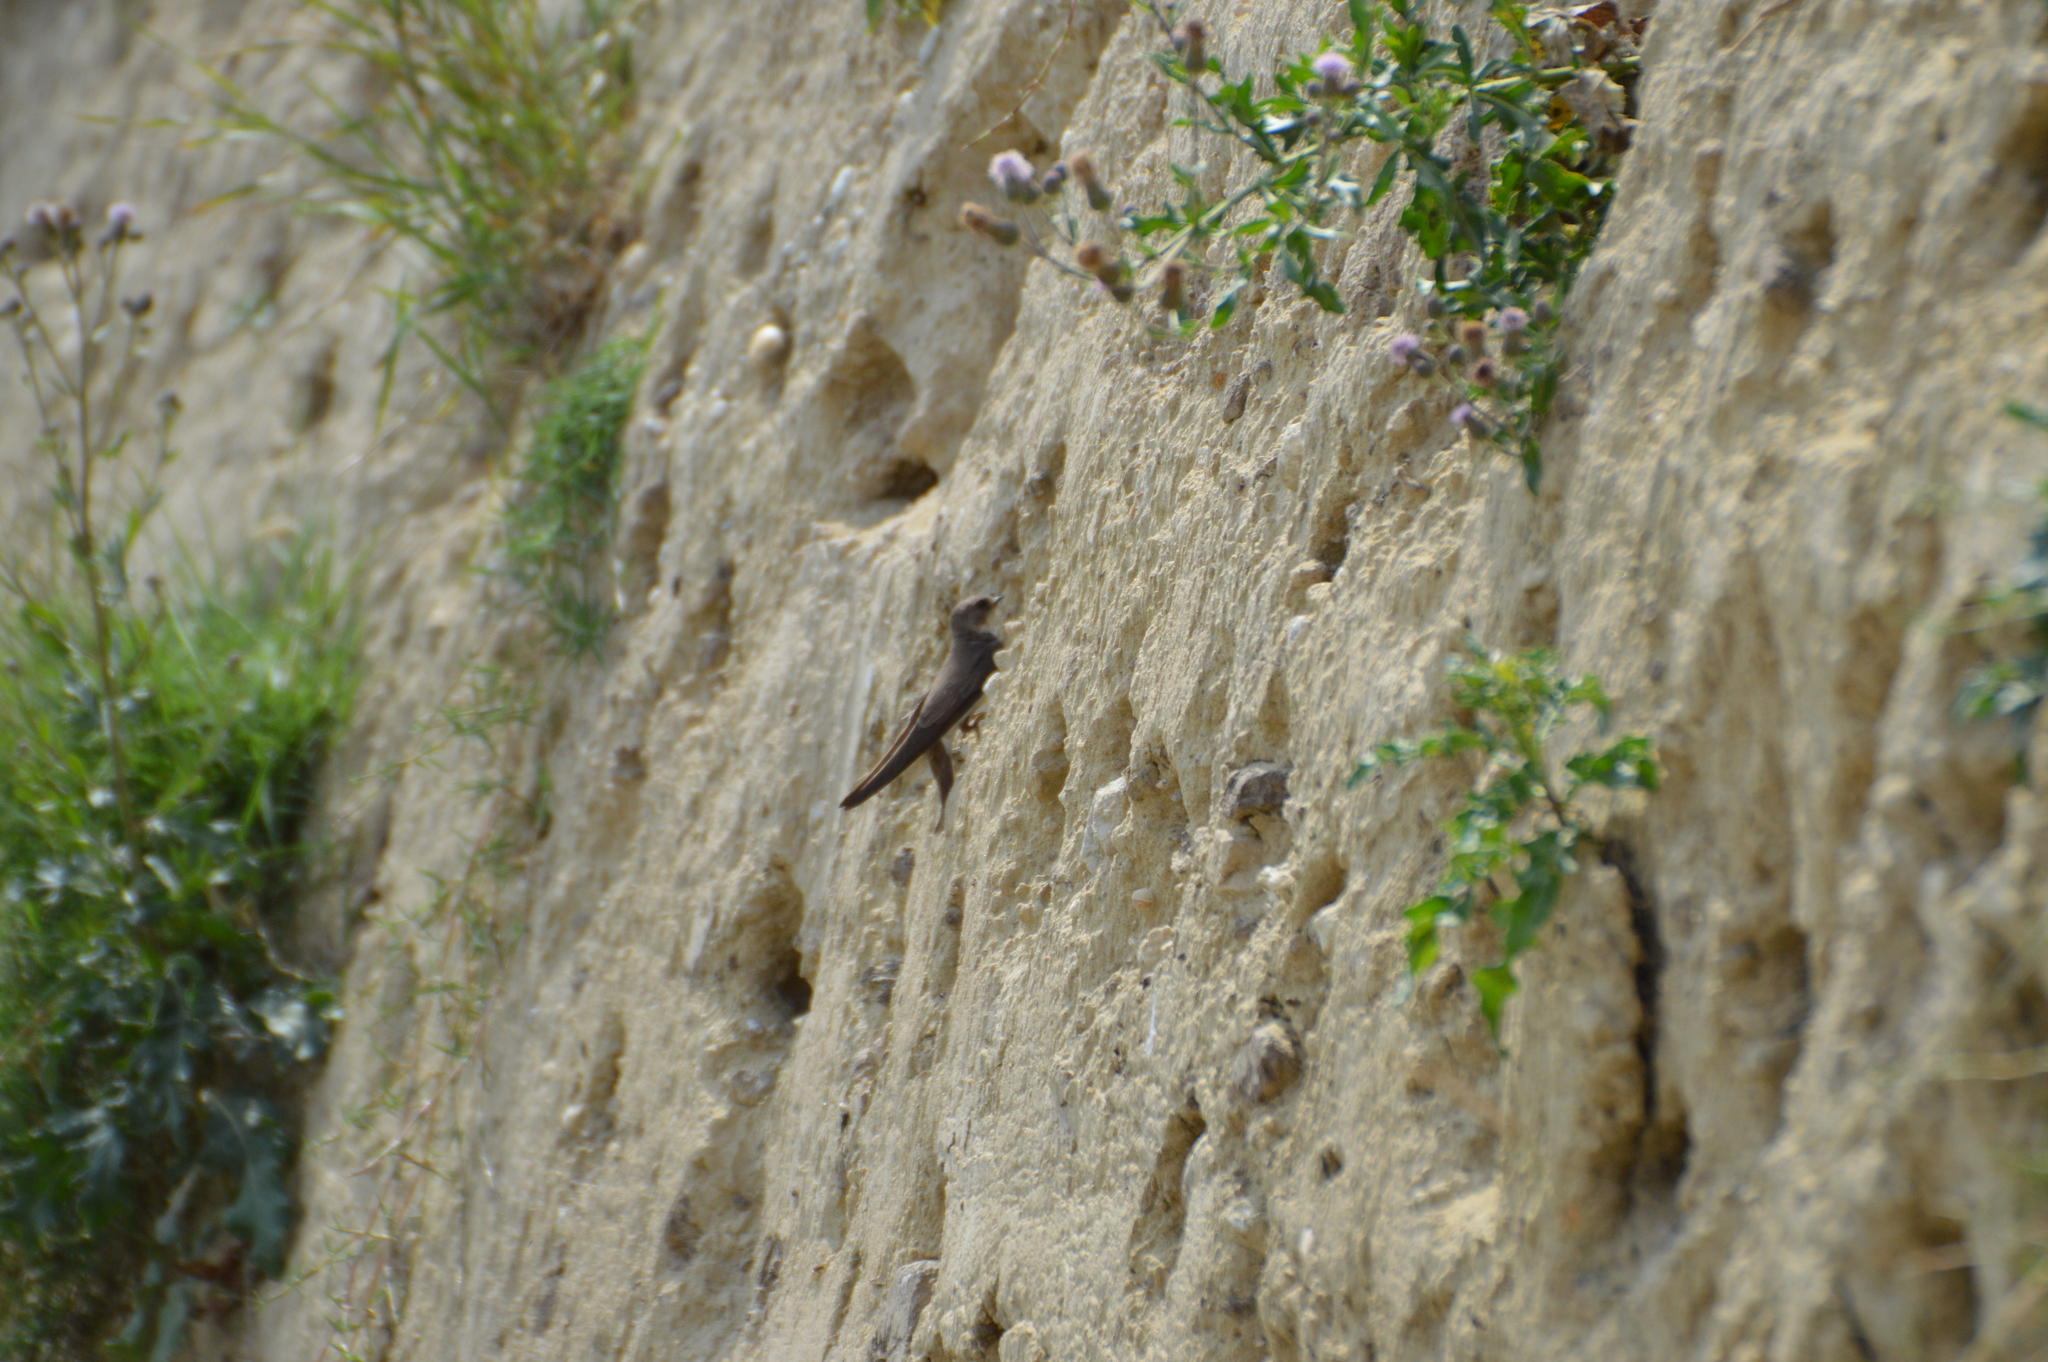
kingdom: Animalia
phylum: Chordata
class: Aves
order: Passeriformes
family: Hirundinidae
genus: Riparia
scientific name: Riparia riparia
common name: Sand martin
